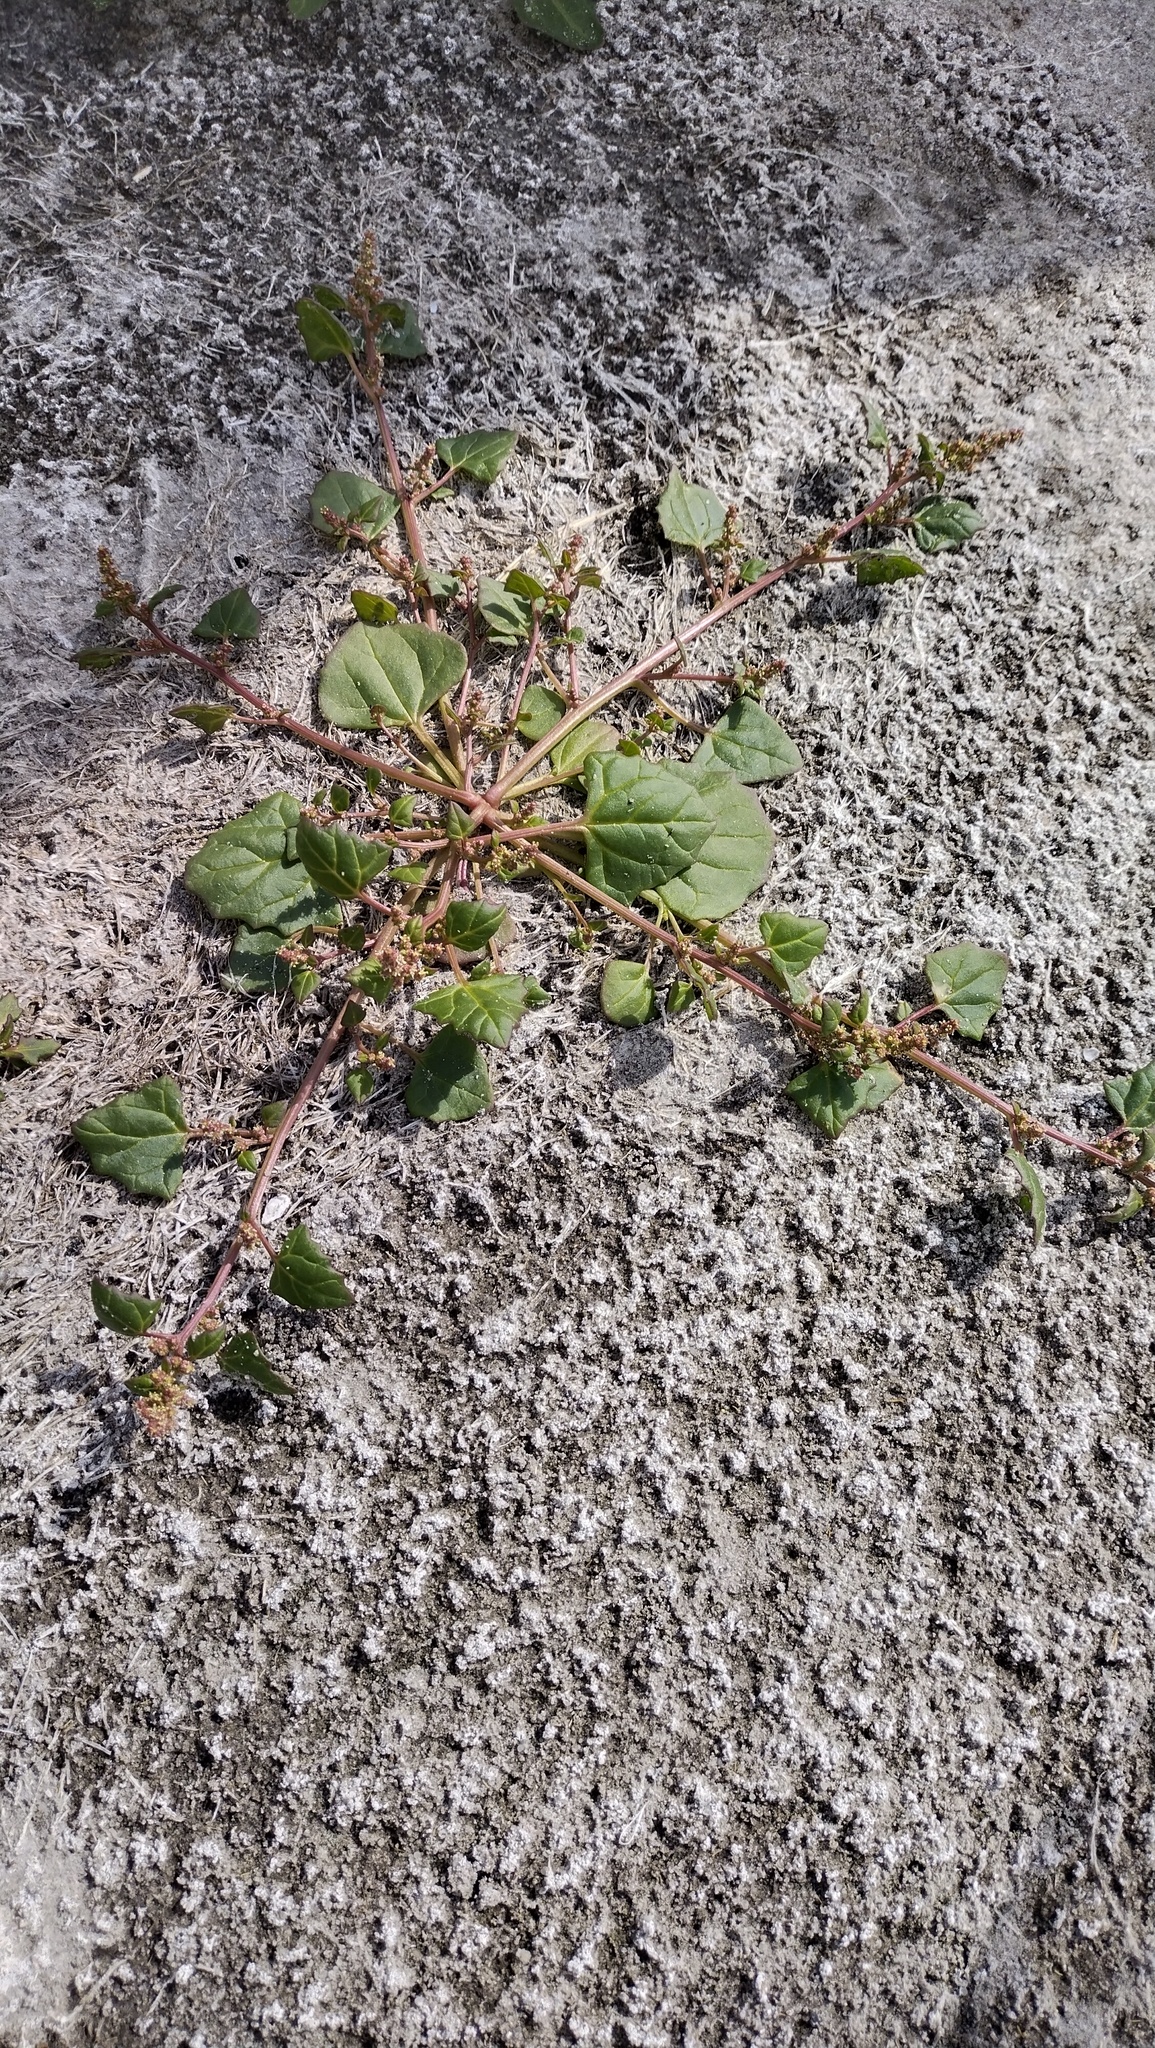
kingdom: Plantae
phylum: Tracheophyta
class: Magnoliopsida
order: Caryophyllales
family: Amaranthaceae
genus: Oxybasis
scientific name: Oxybasis rubra
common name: Red goosefoot
